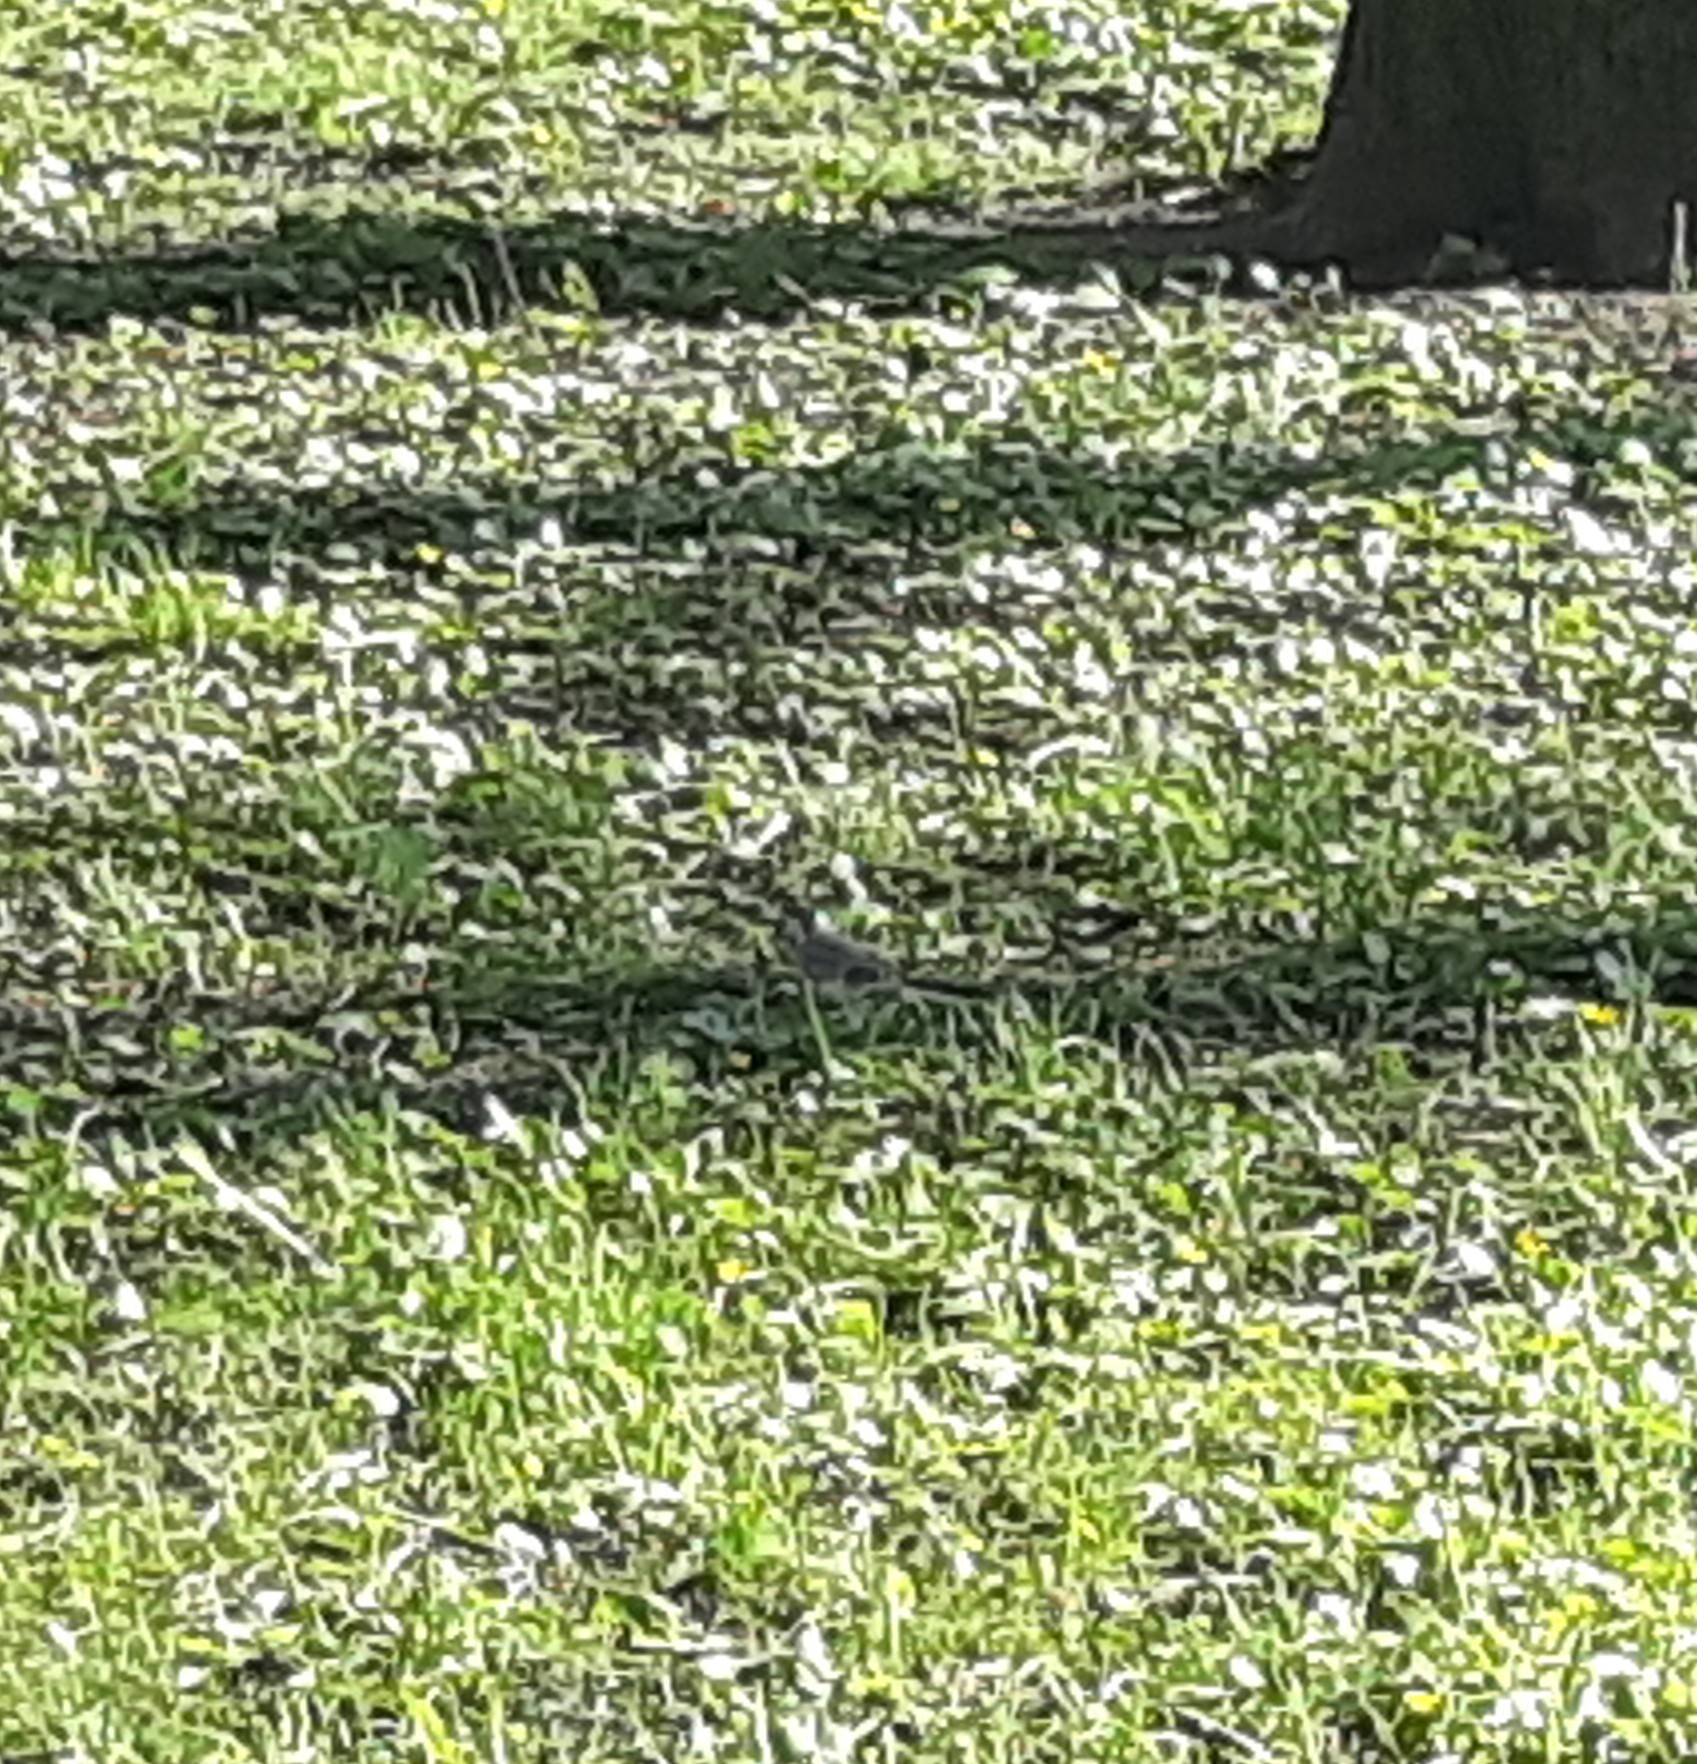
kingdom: Animalia
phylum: Chordata
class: Aves
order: Passeriformes
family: Motacillidae
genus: Motacilla
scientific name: Motacilla alba
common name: White wagtail
